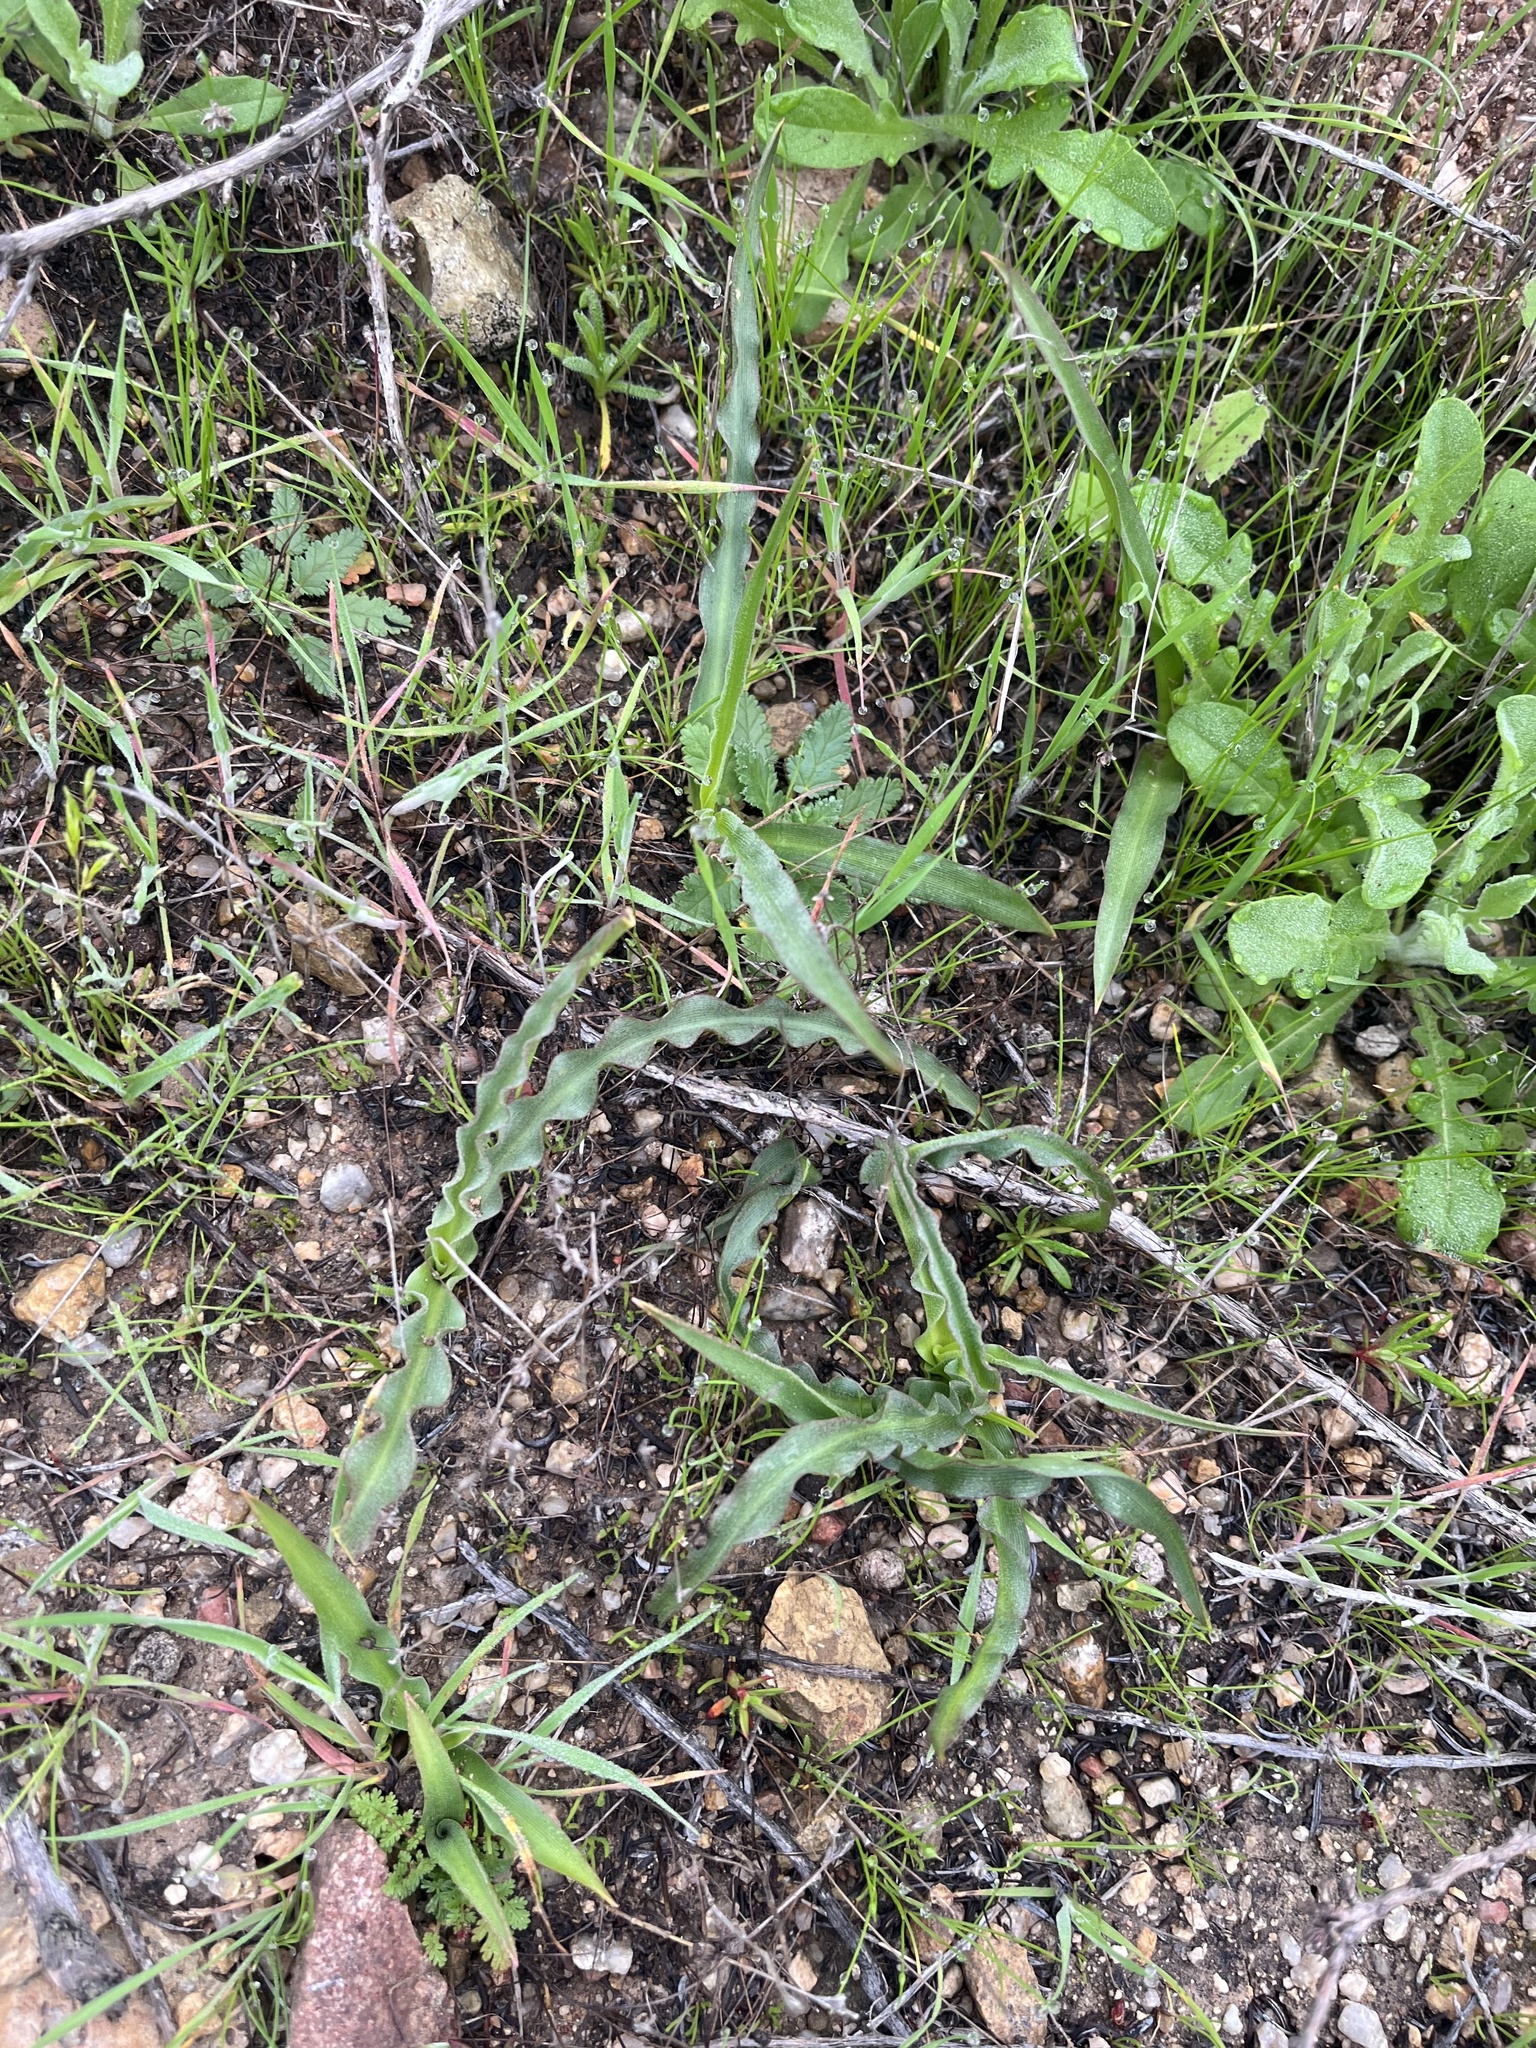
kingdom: Plantae
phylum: Tracheophyta
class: Liliopsida
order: Asparagales
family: Asparagaceae
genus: Hooveria
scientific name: Hooveria parviflora
